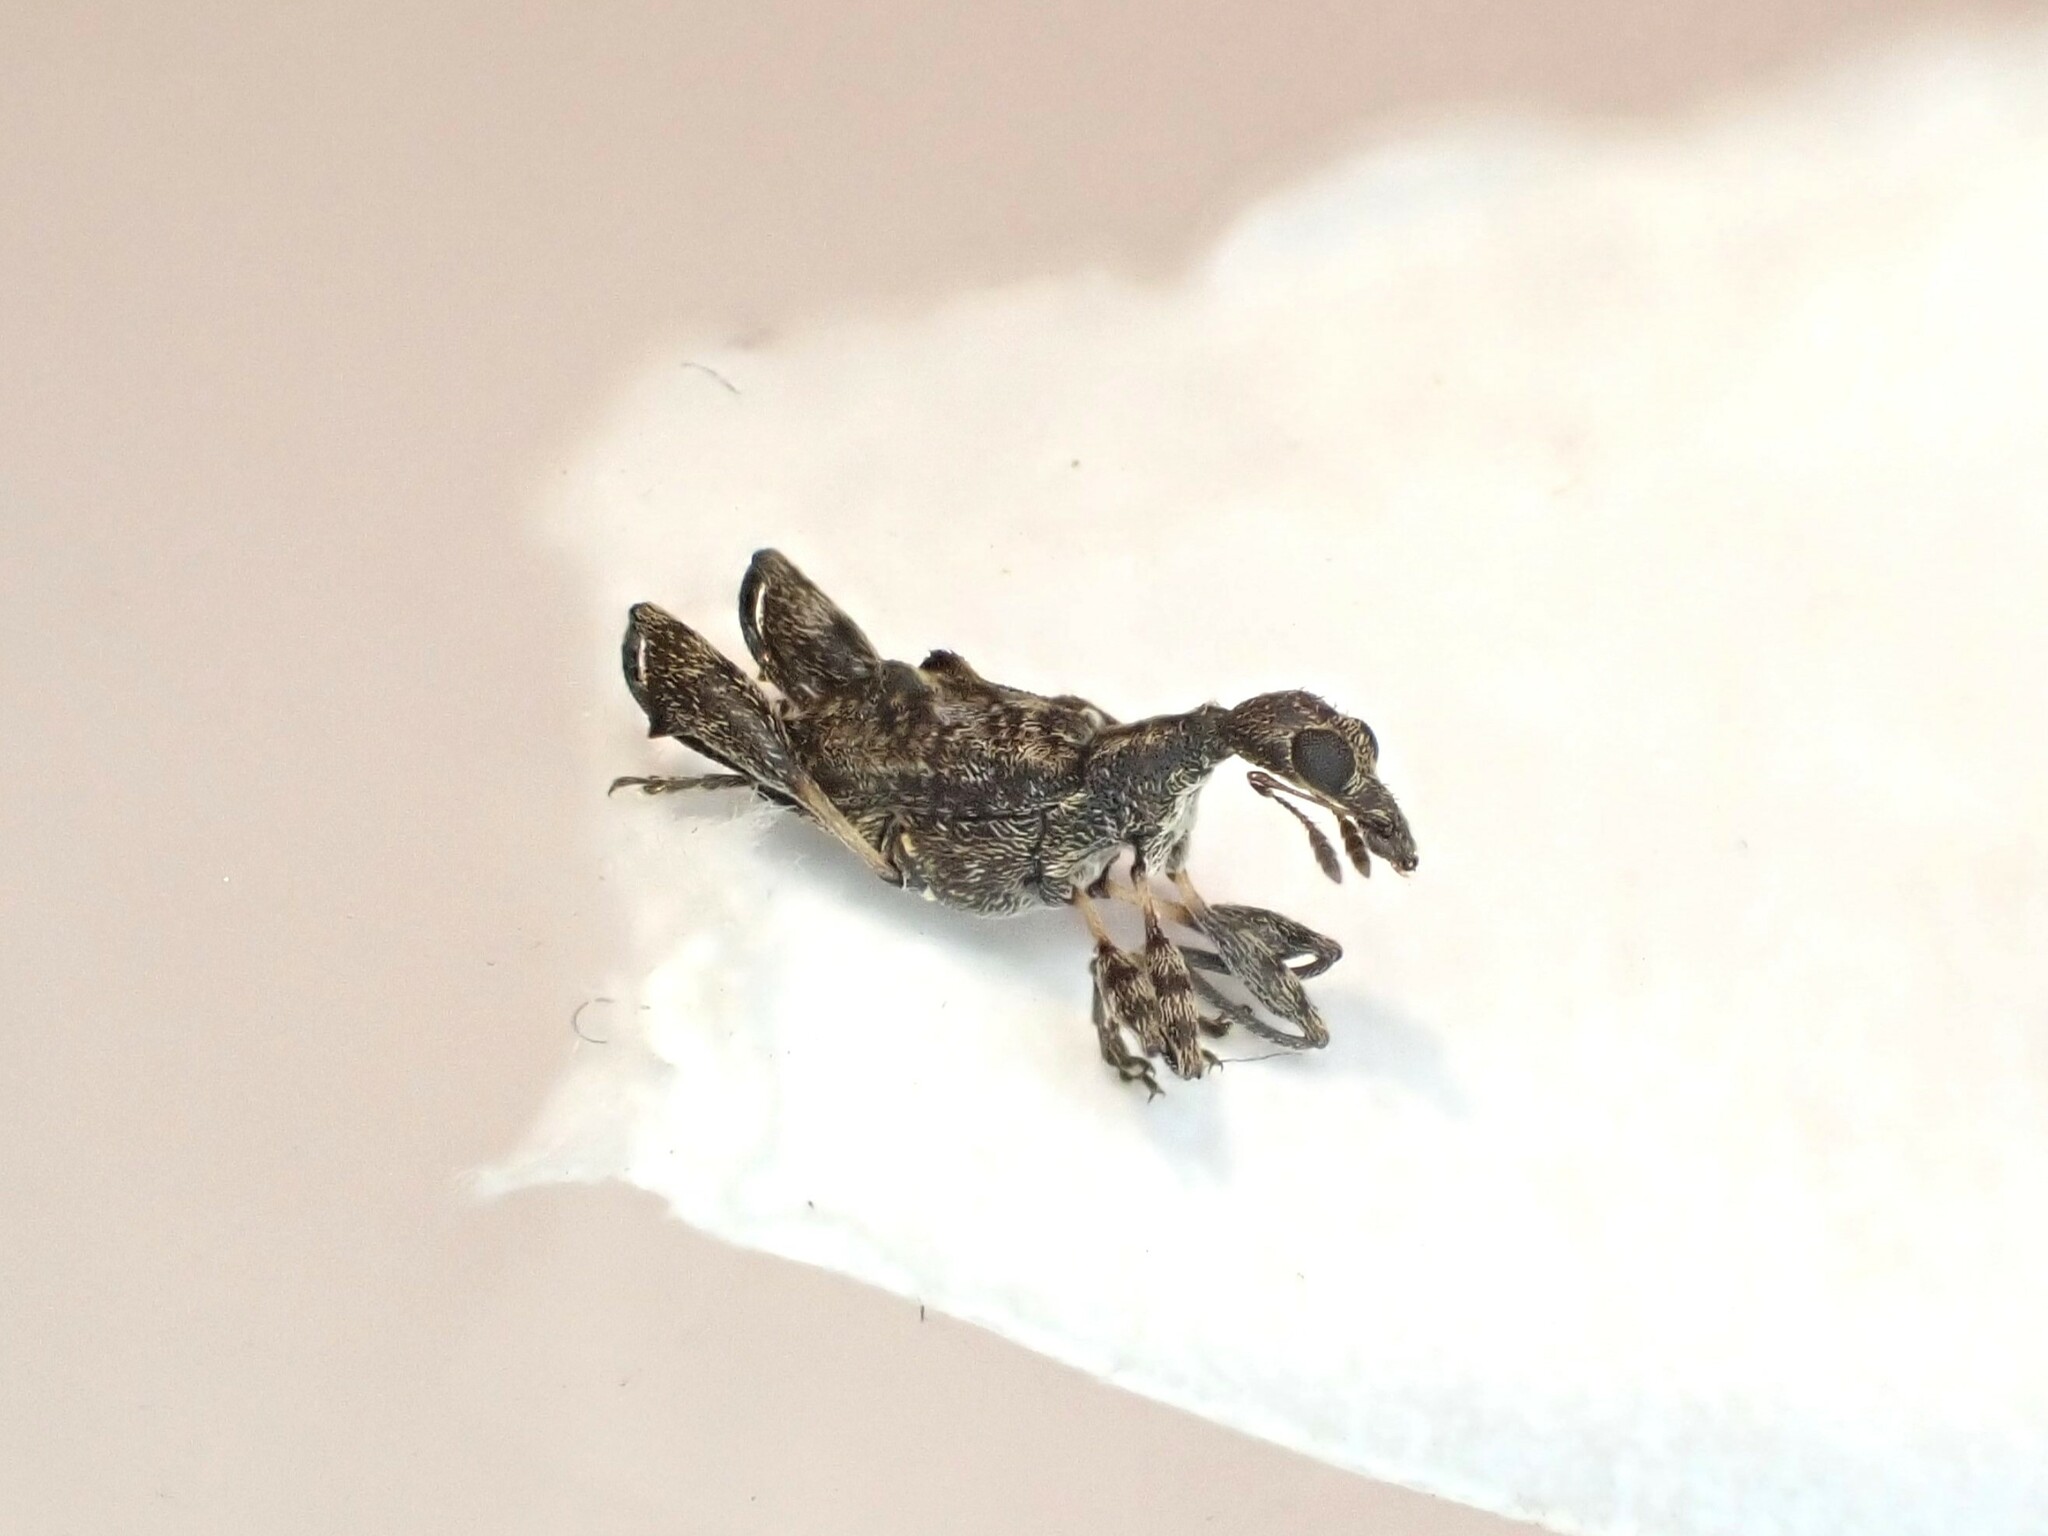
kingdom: Animalia
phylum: Arthropoda
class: Insecta
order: Coleoptera
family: Curculionidae
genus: Stephanorhynchus
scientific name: Stephanorhynchus lawsoni
